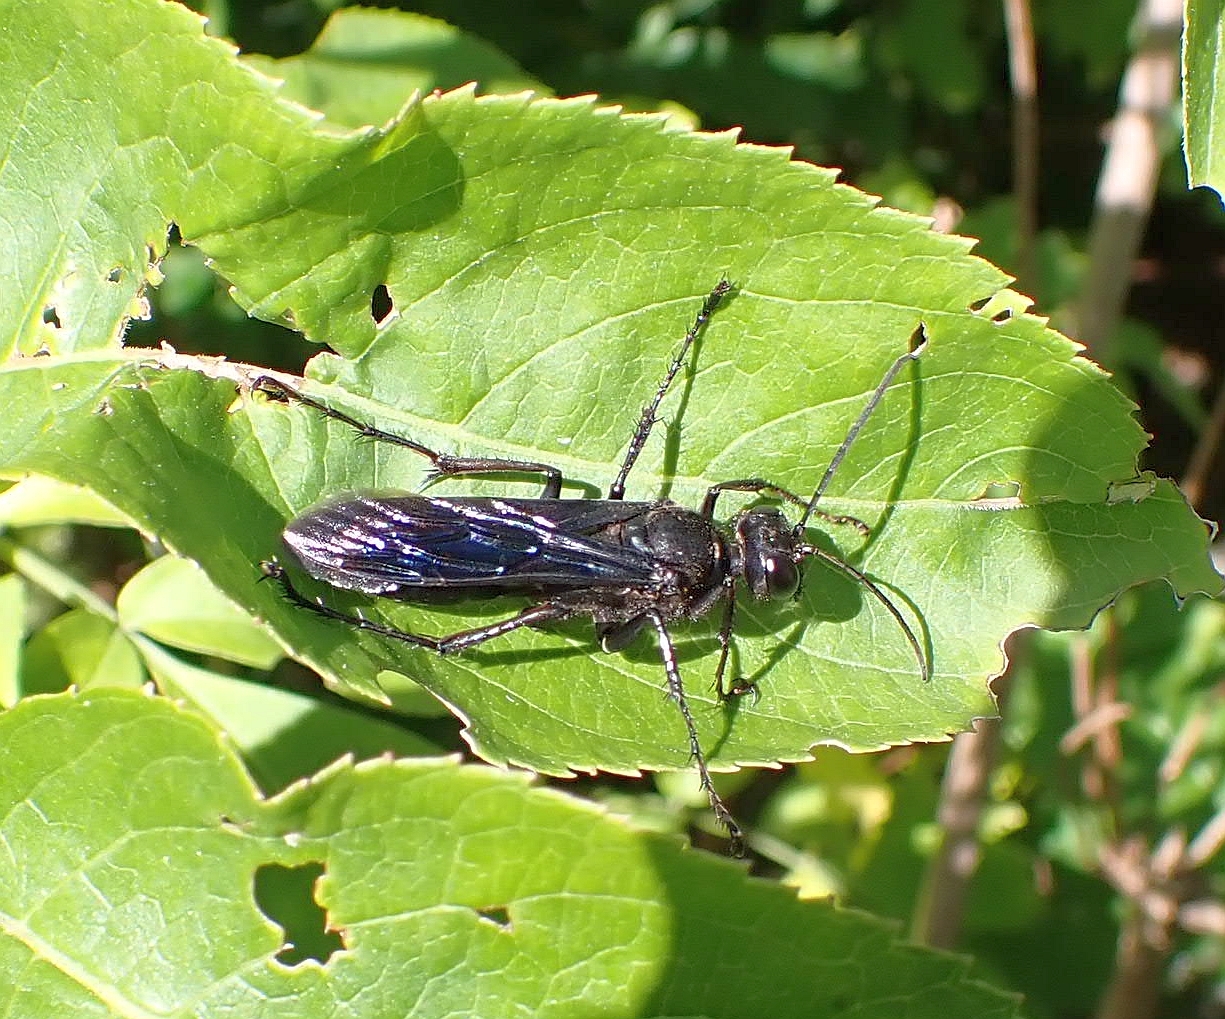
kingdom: Animalia
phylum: Arthropoda
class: Insecta
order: Hymenoptera
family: Sphecidae
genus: Sphex
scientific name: Sphex pensylvanicus
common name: Great black digger wasp
